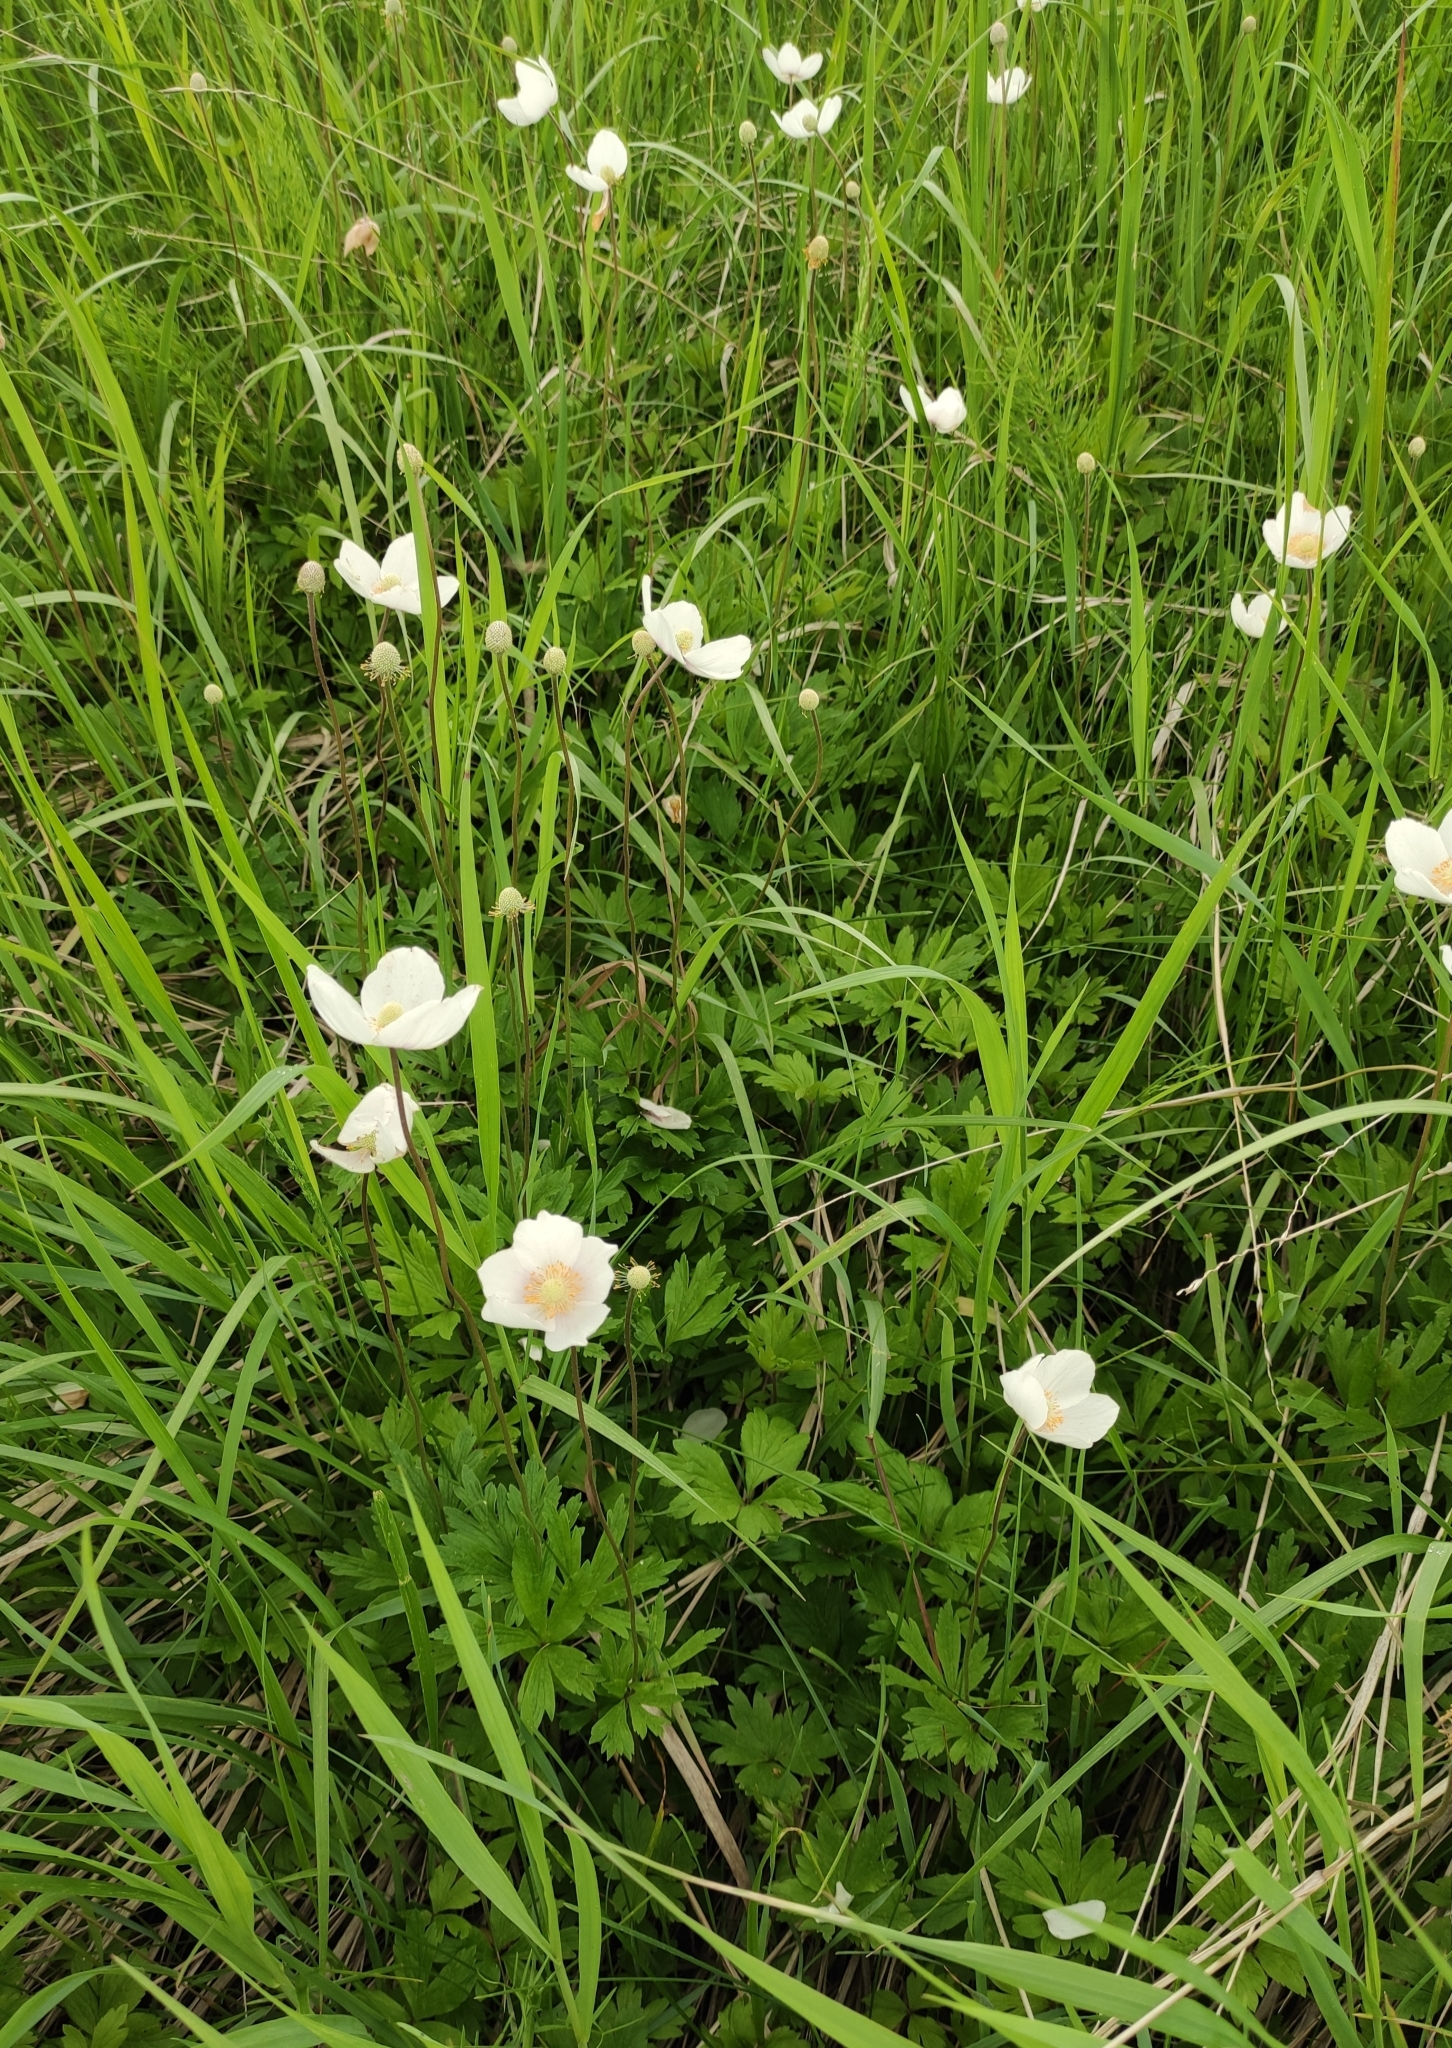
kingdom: Plantae
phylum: Tracheophyta
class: Magnoliopsida
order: Ranunculales
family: Ranunculaceae
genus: Anemone
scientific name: Anemone sylvestris
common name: Snowdrop anemone
